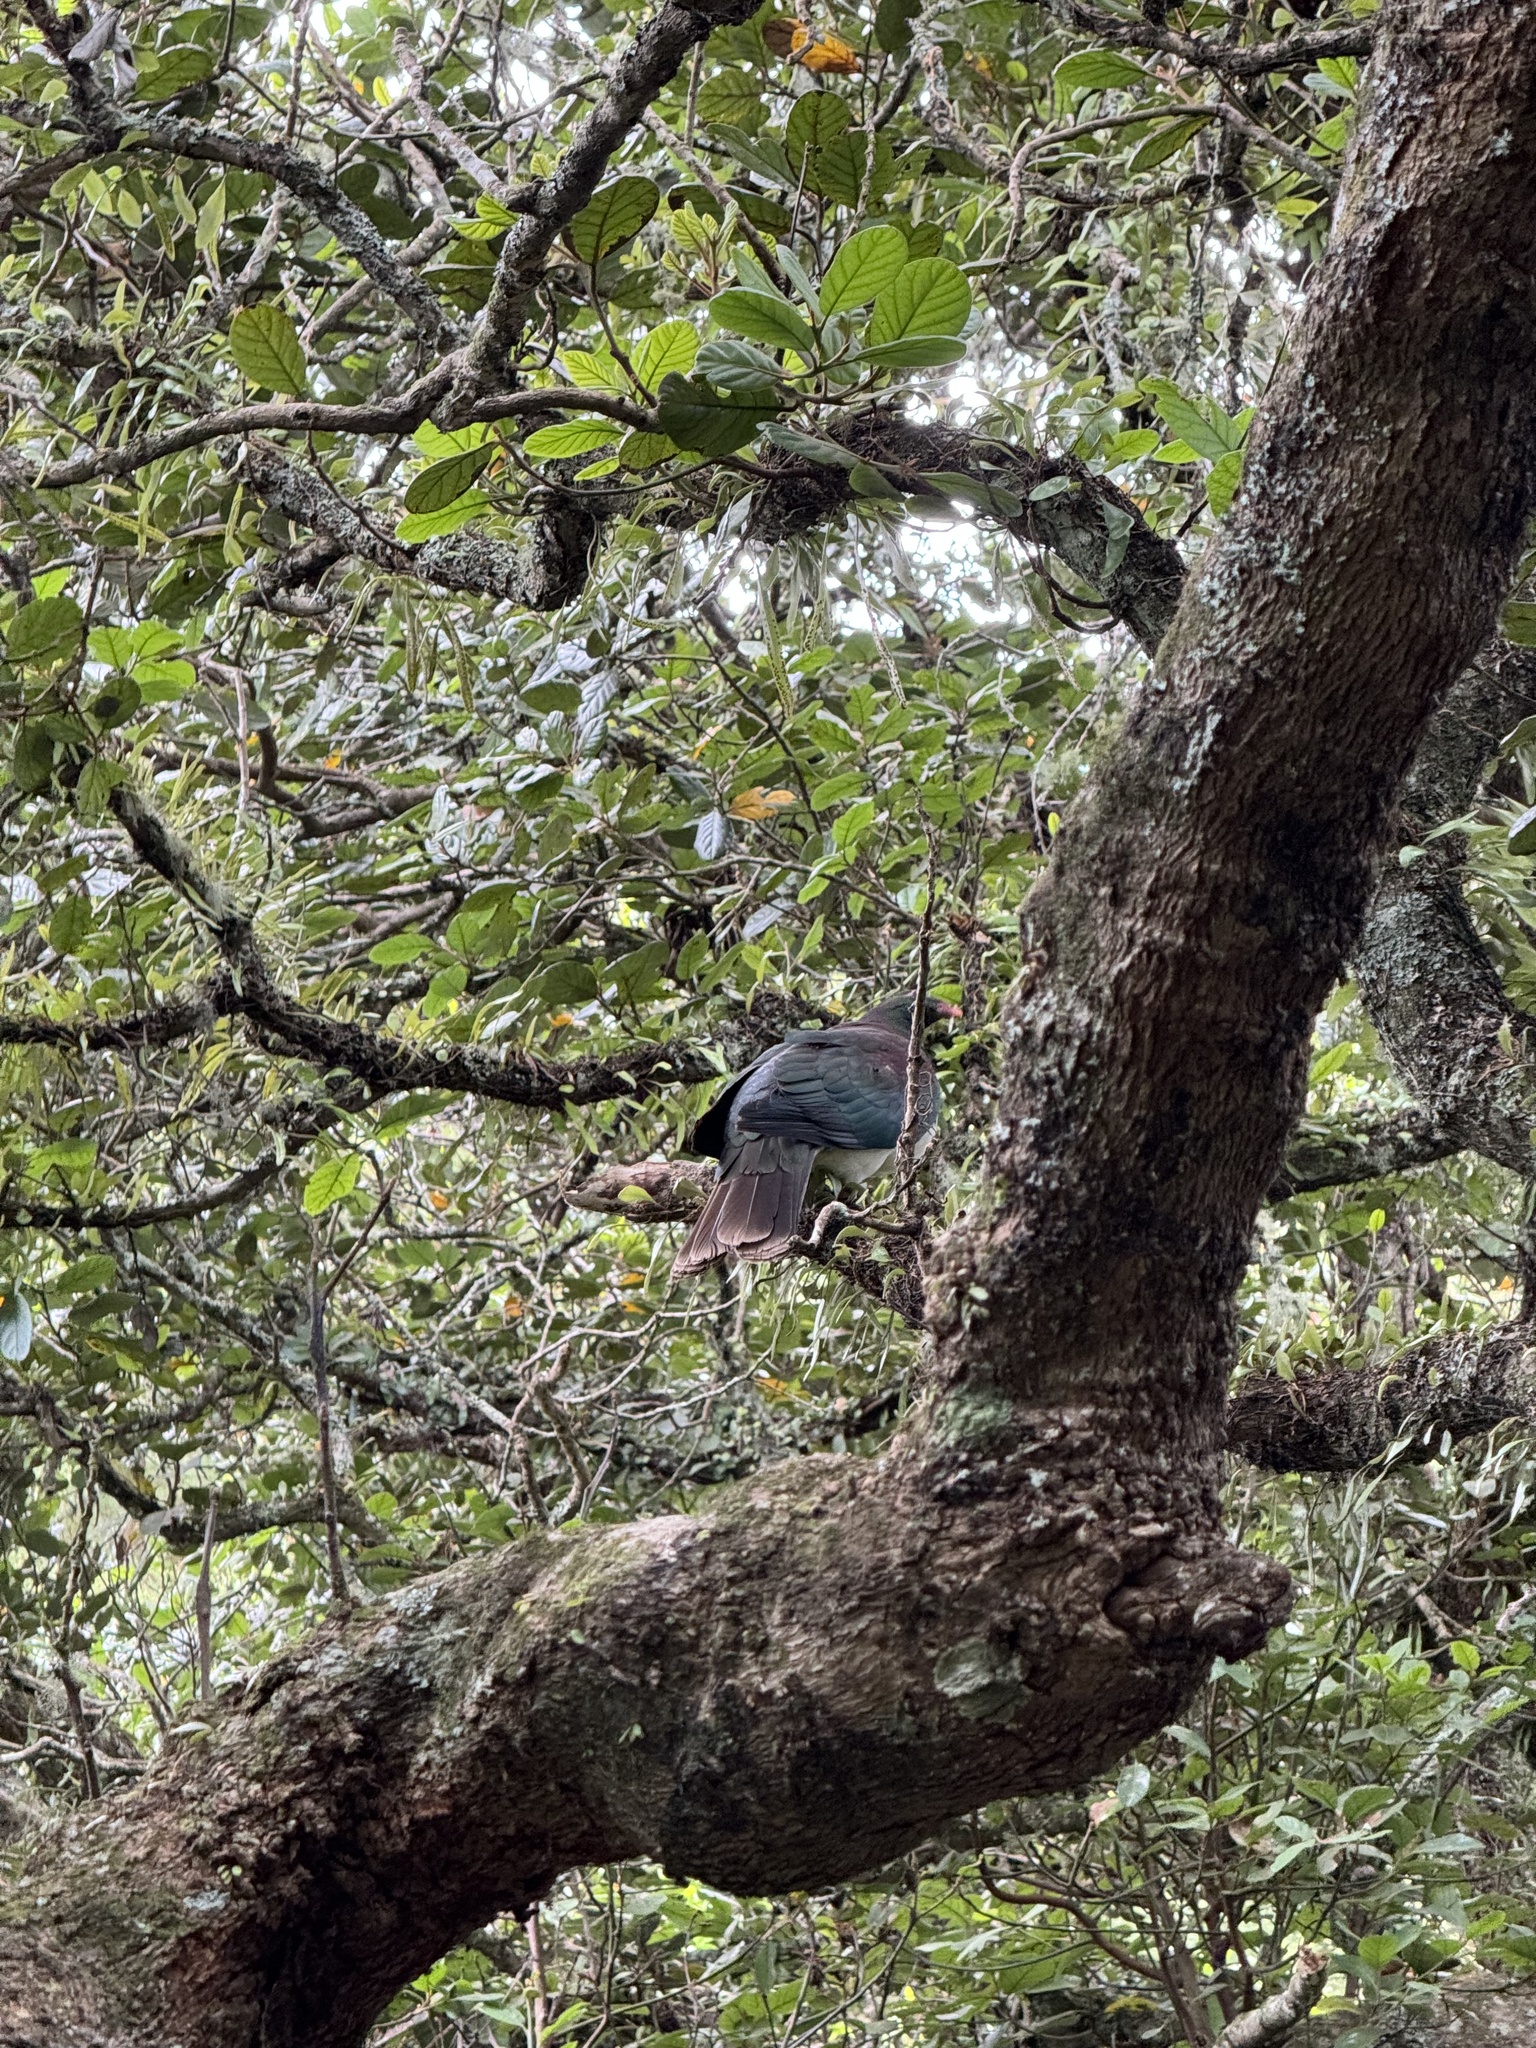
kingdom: Animalia
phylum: Chordata
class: Aves
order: Columbiformes
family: Columbidae
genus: Hemiphaga
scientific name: Hemiphaga novaeseelandiae
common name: New zealand pigeon
